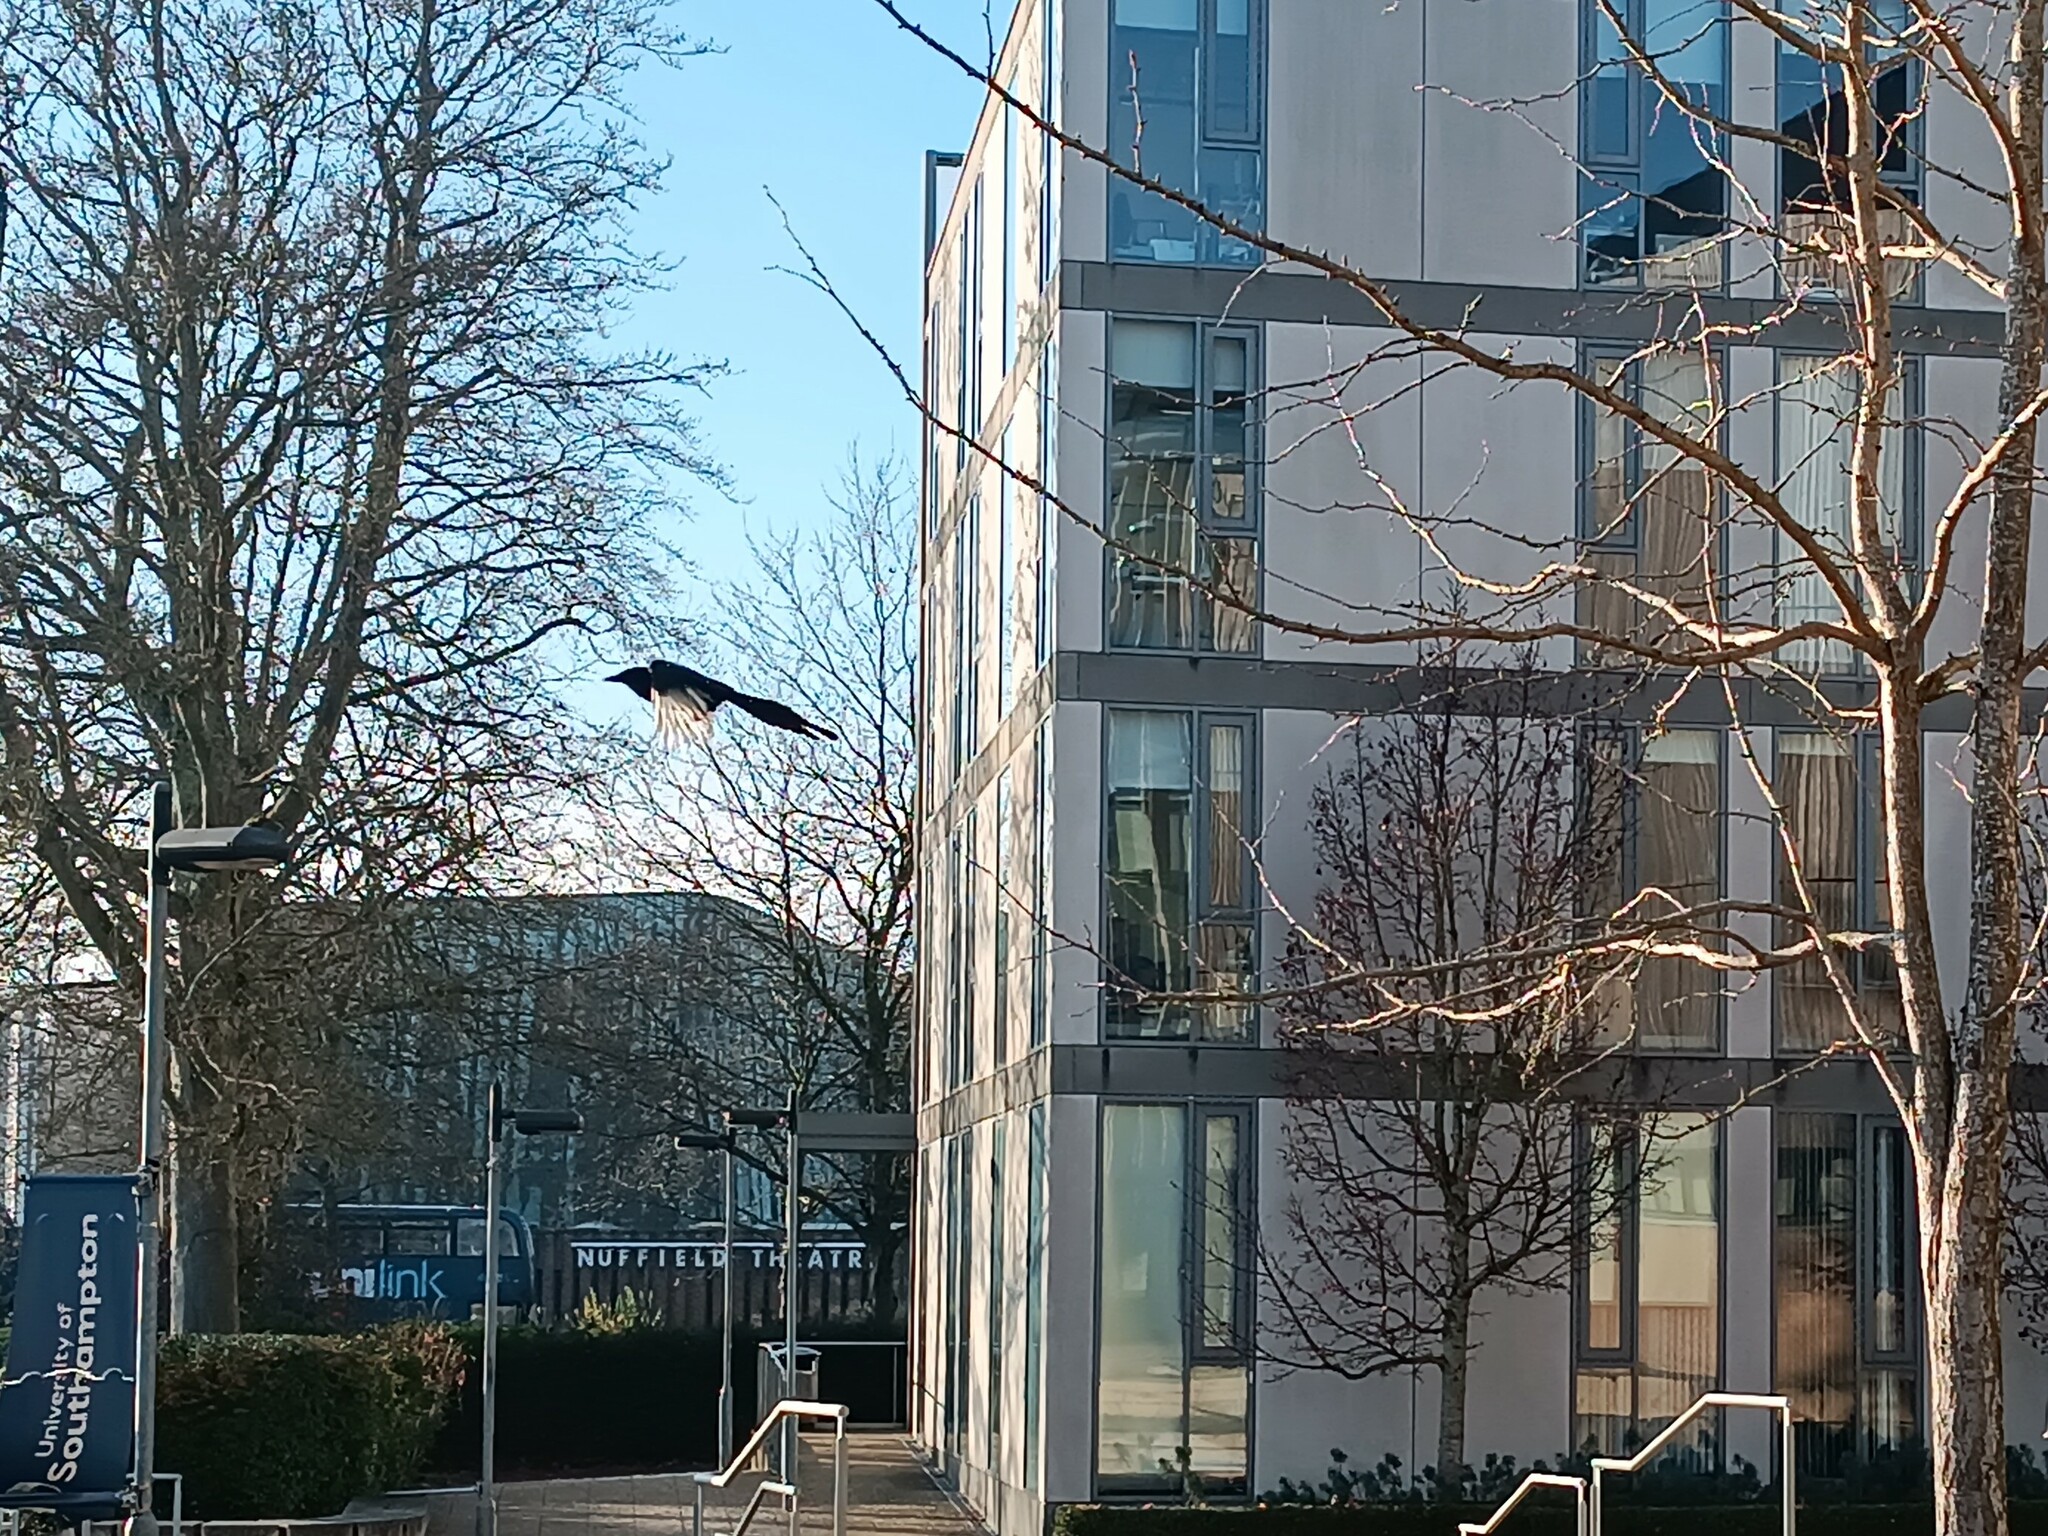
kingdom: Animalia
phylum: Chordata
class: Aves
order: Passeriformes
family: Corvidae
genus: Pica
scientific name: Pica pica
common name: Eurasian magpie
